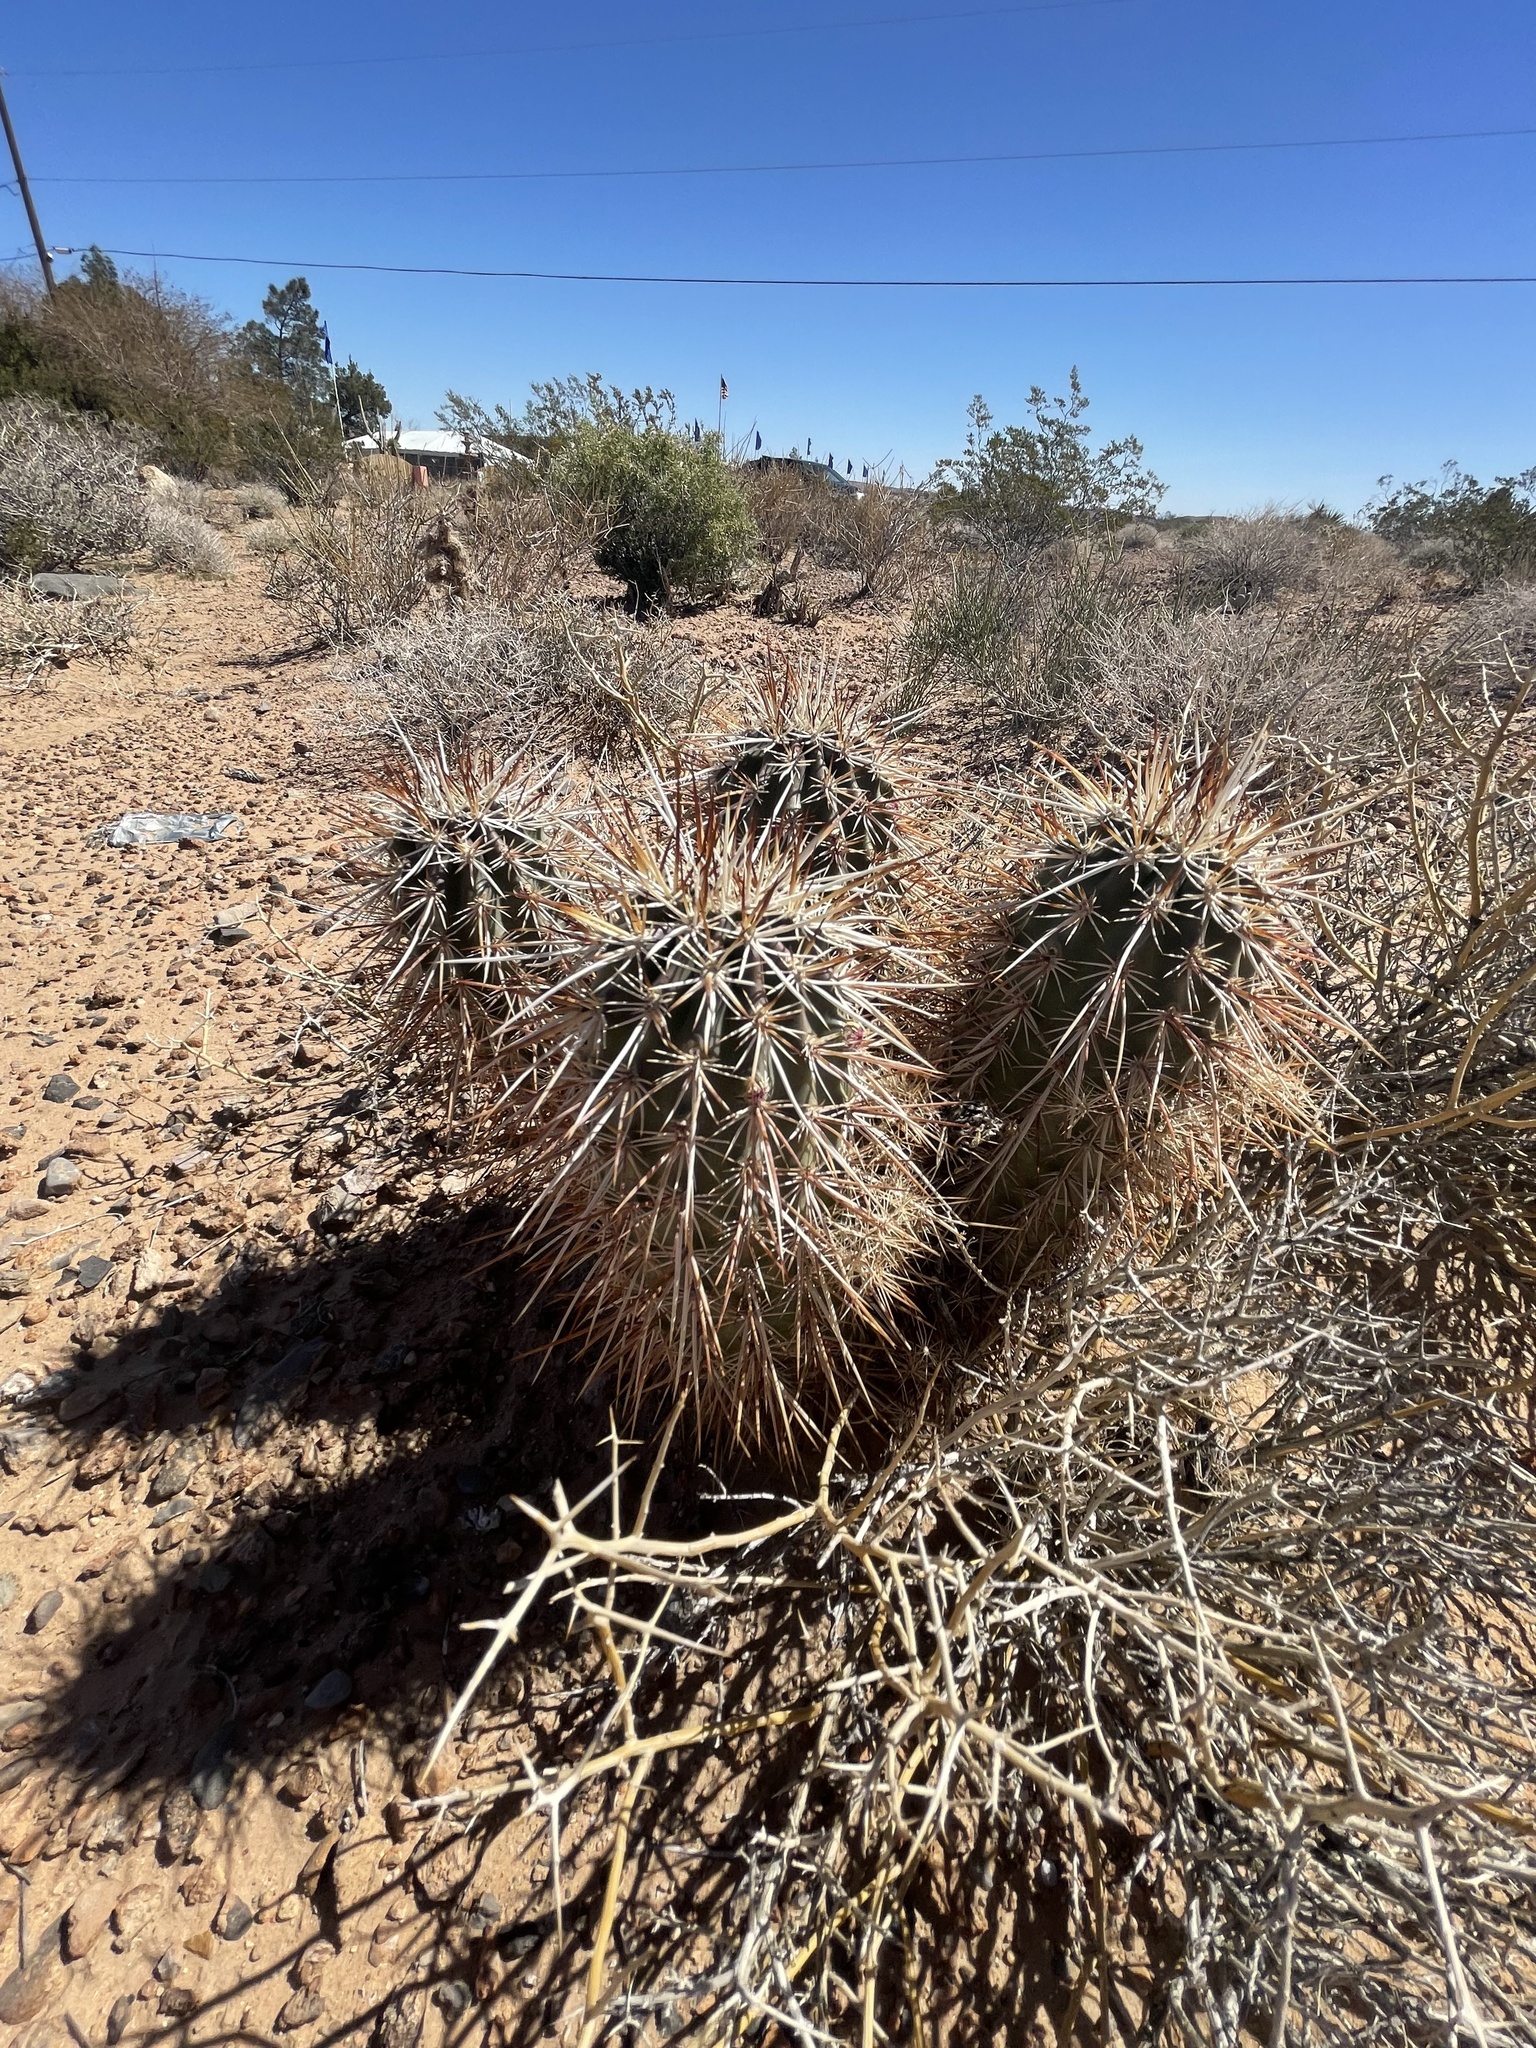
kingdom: Plantae
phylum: Tracheophyta
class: Magnoliopsida
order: Caryophyllales
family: Cactaceae
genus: Echinocereus
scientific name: Echinocereus engelmannii
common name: Engelmann's hedgehog cactus
